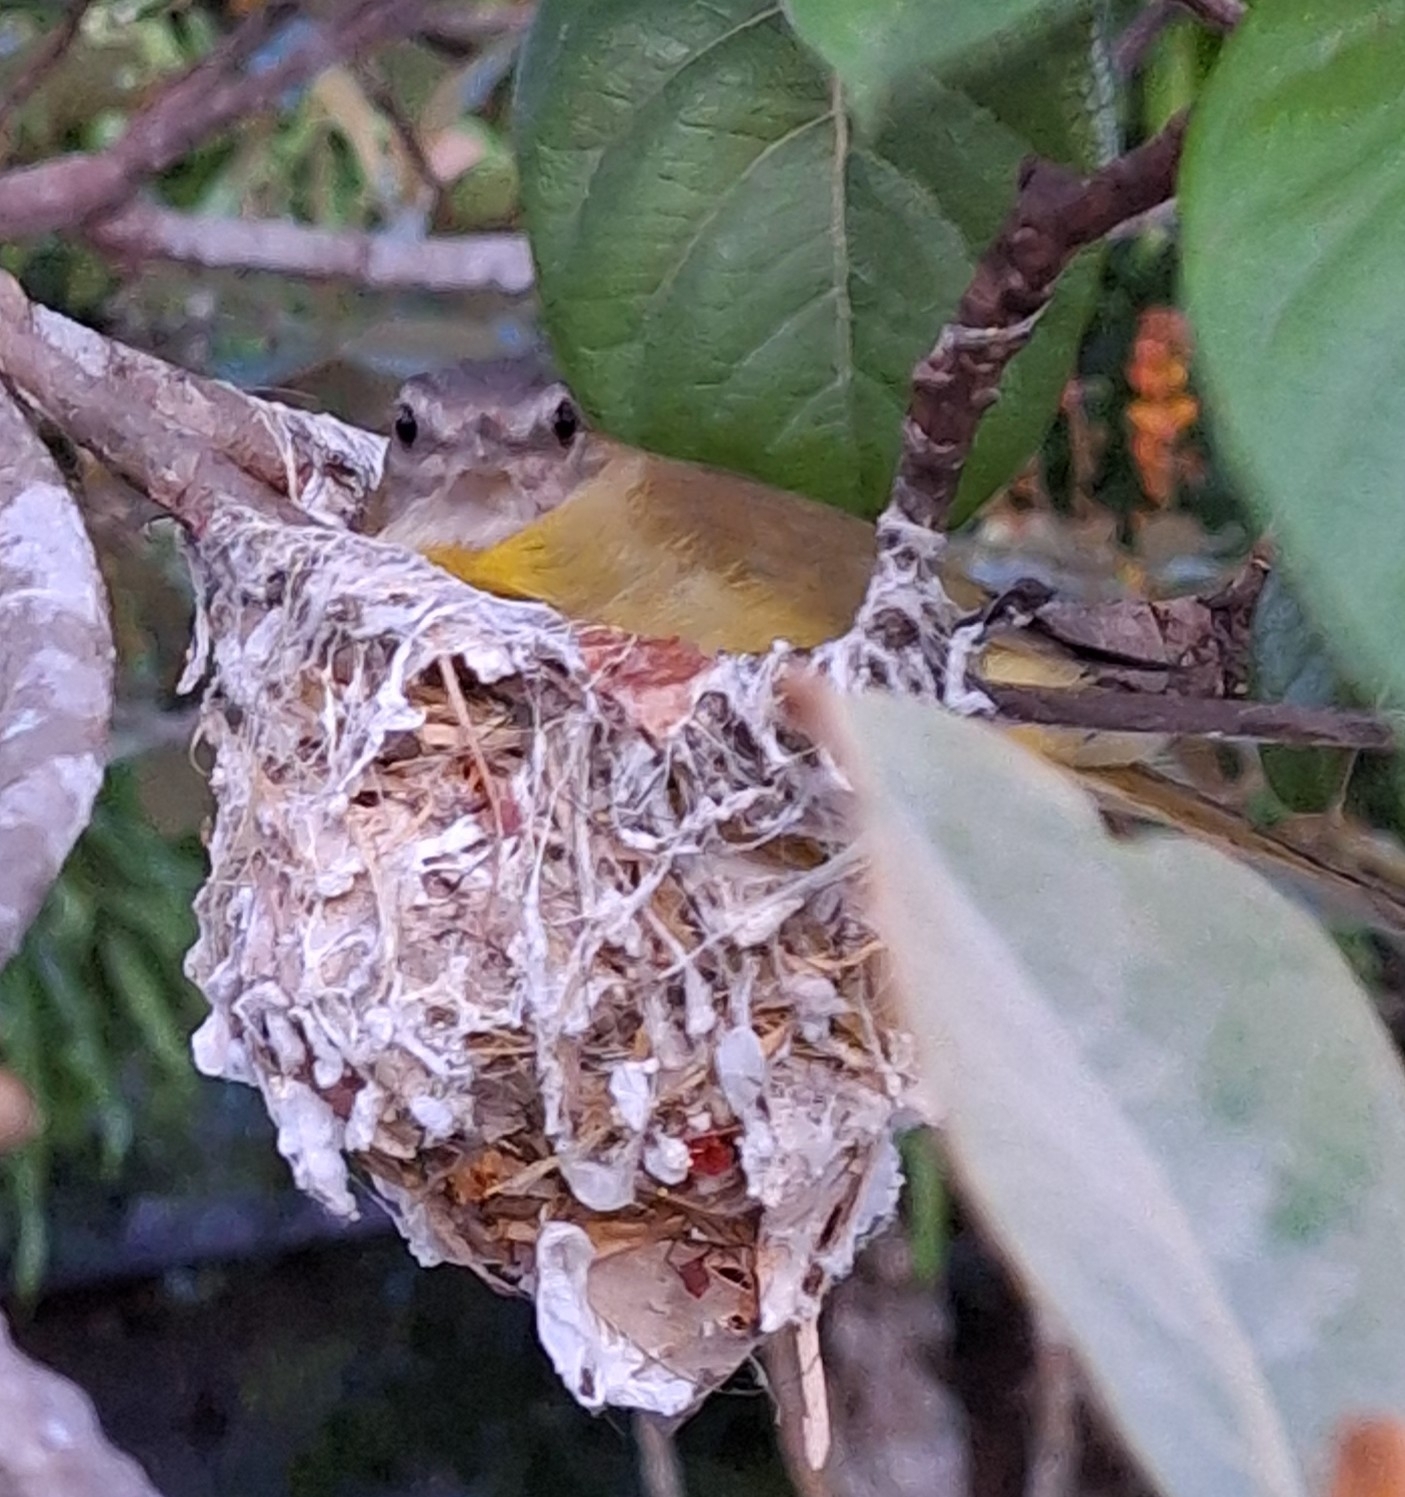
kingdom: Animalia
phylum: Chordata
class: Aves
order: Passeriformes
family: Vireonidae
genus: Vireo
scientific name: Vireo flavoviridis
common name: Yellow-green vireo
